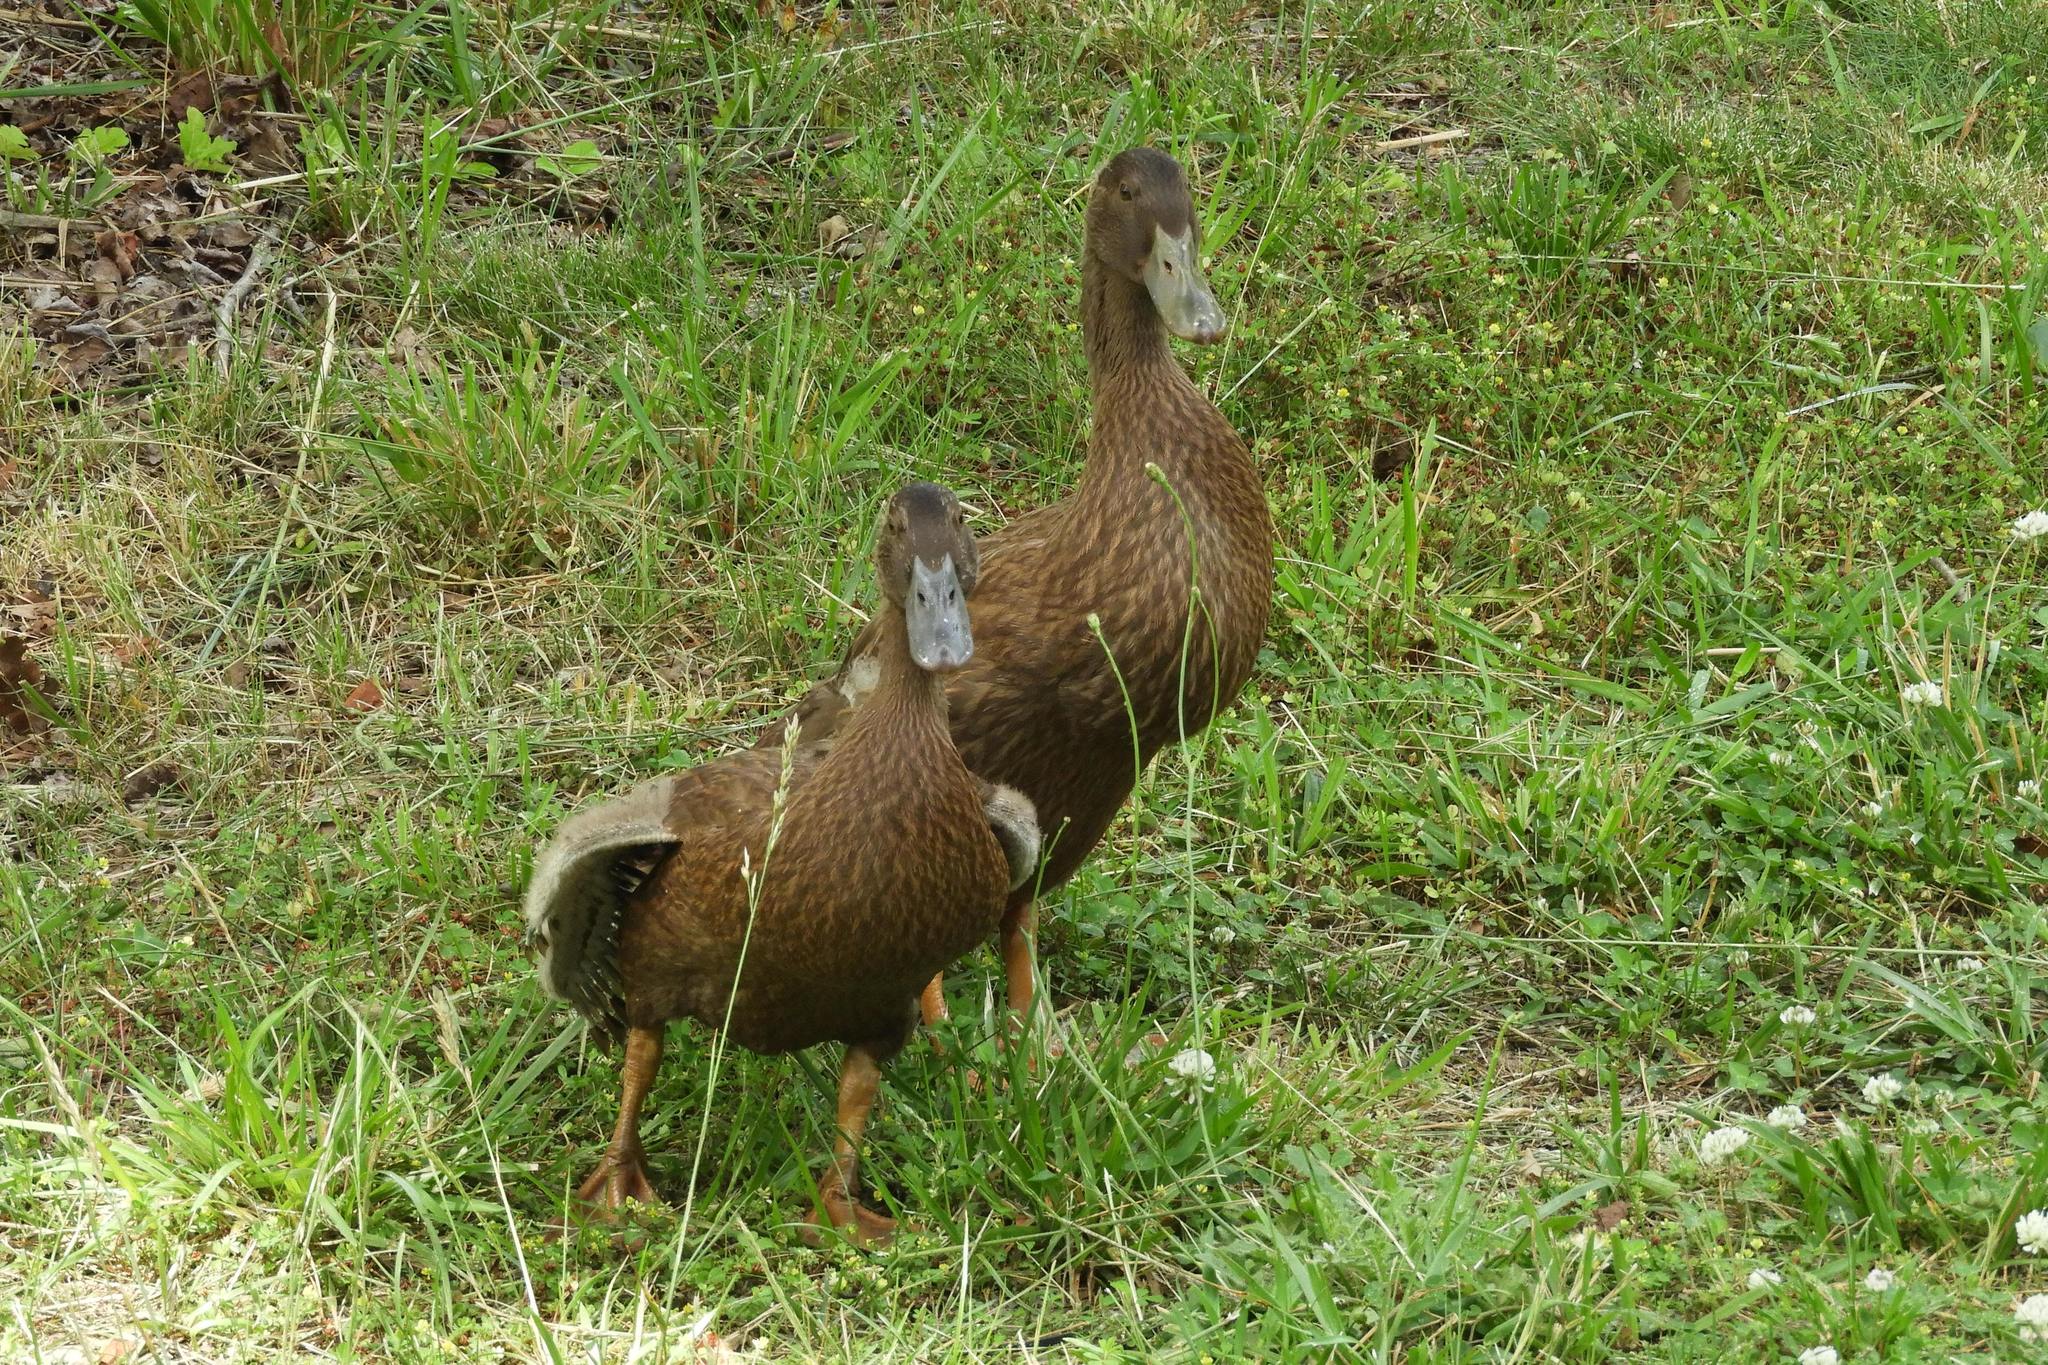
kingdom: Animalia
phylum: Chordata
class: Aves
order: Anseriformes
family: Anatidae
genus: Anas
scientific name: Anas platyrhynchos
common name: Mallard
